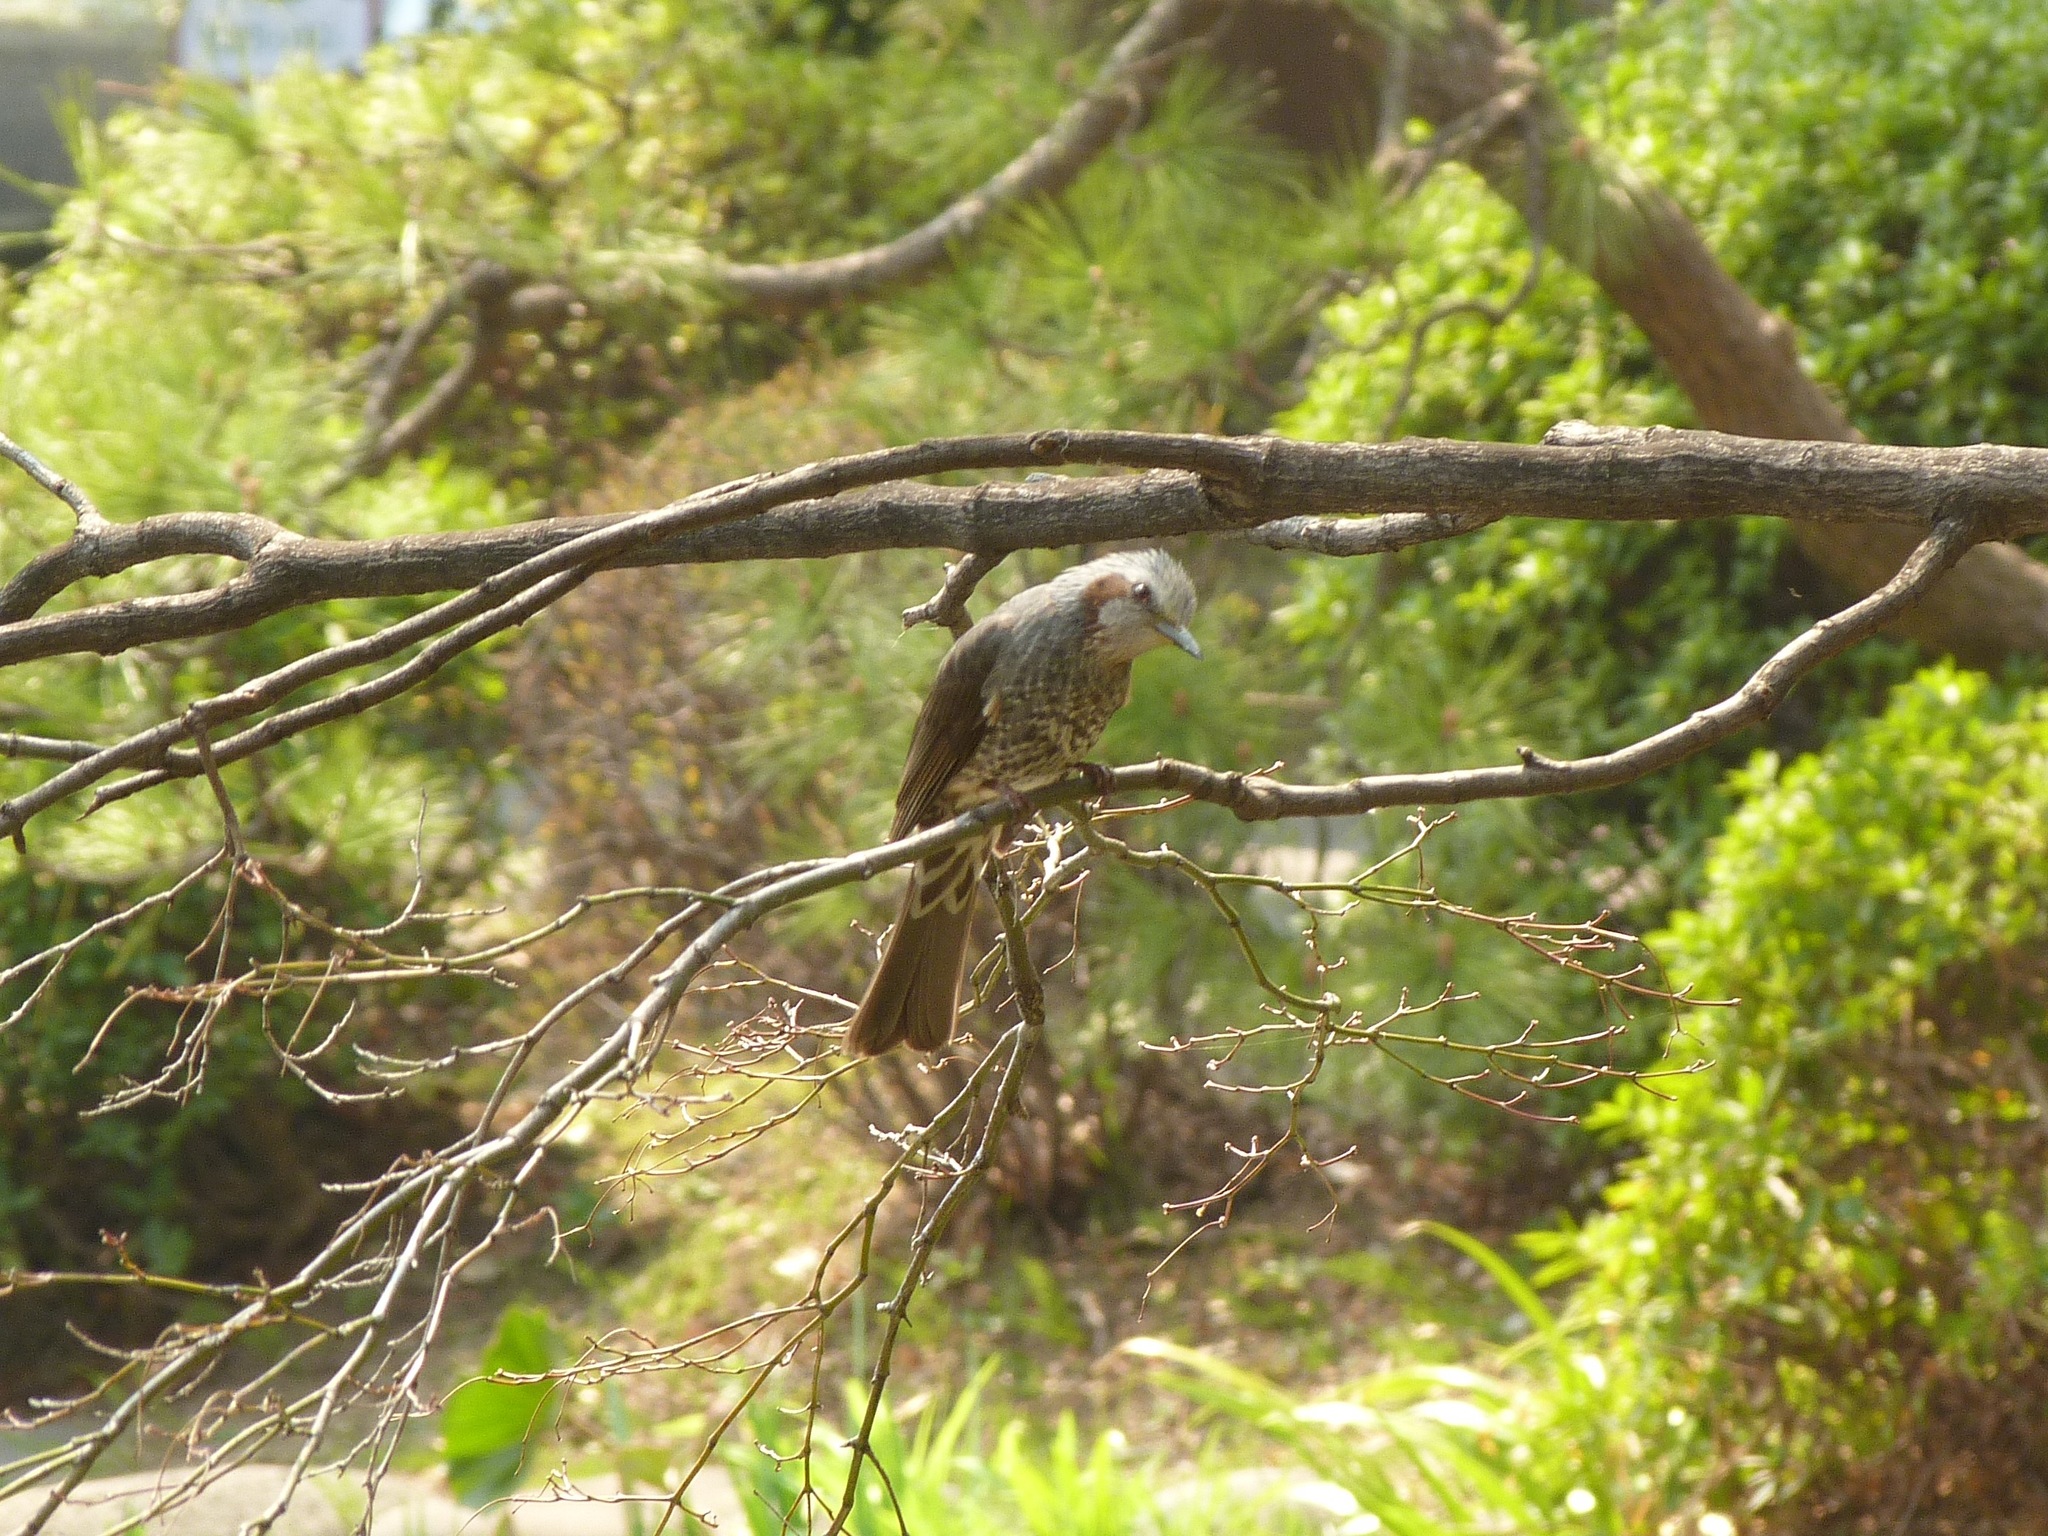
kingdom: Animalia
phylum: Chordata
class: Aves
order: Passeriformes
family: Pycnonotidae
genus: Hypsipetes
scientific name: Hypsipetes amaurotis
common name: Brown-eared bulbul
